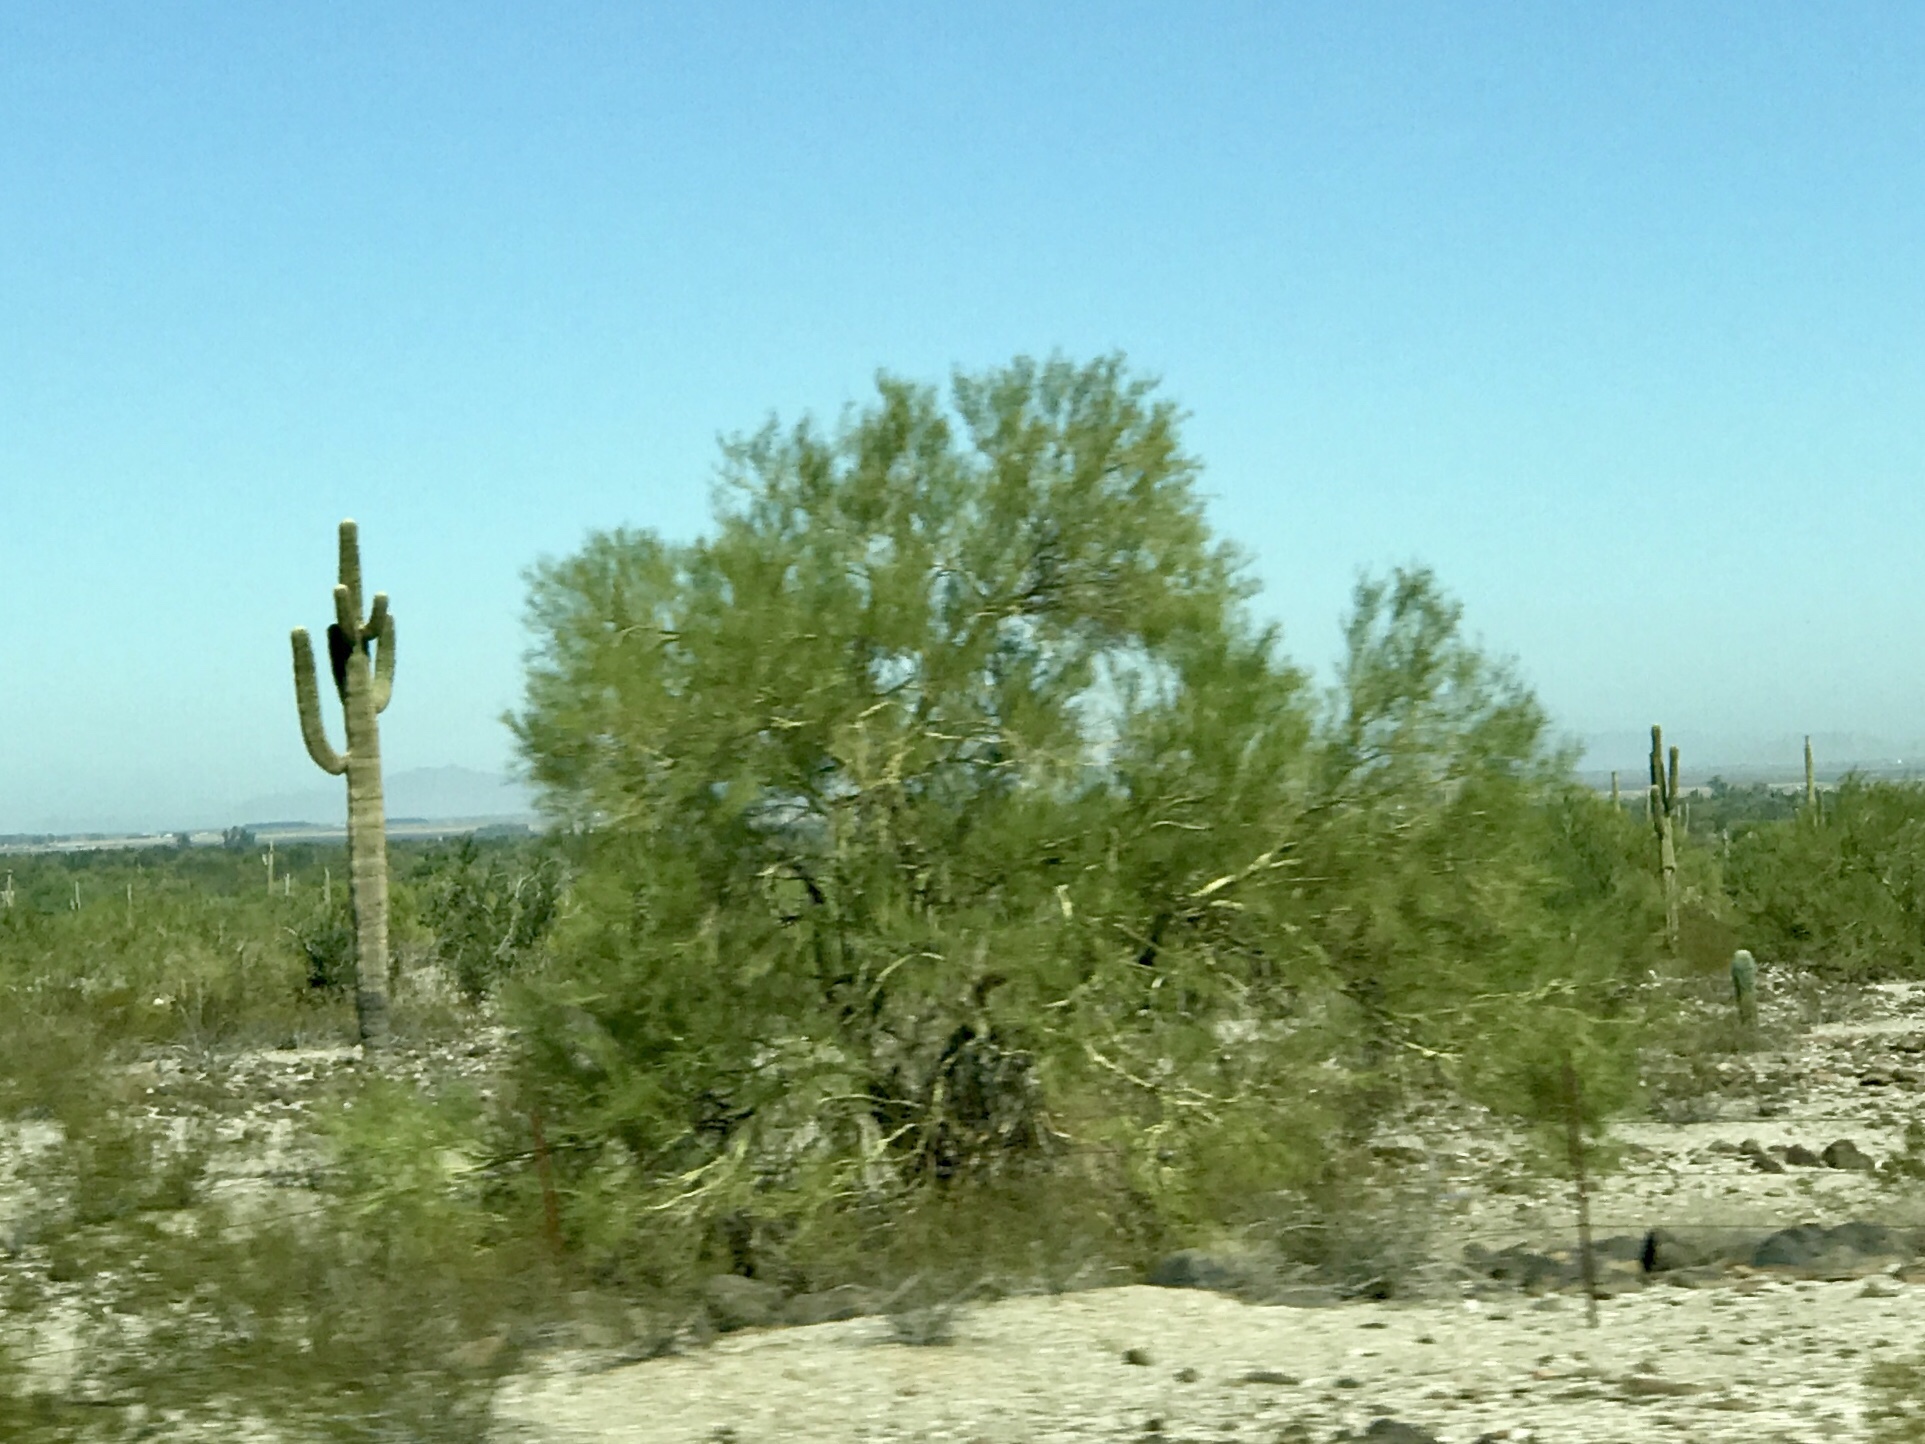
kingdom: Plantae
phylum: Tracheophyta
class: Magnoliopsida
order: Fabales
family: Fabaceae
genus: Parkinsonia
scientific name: Parkinsonia florida
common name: Blue paloverde
